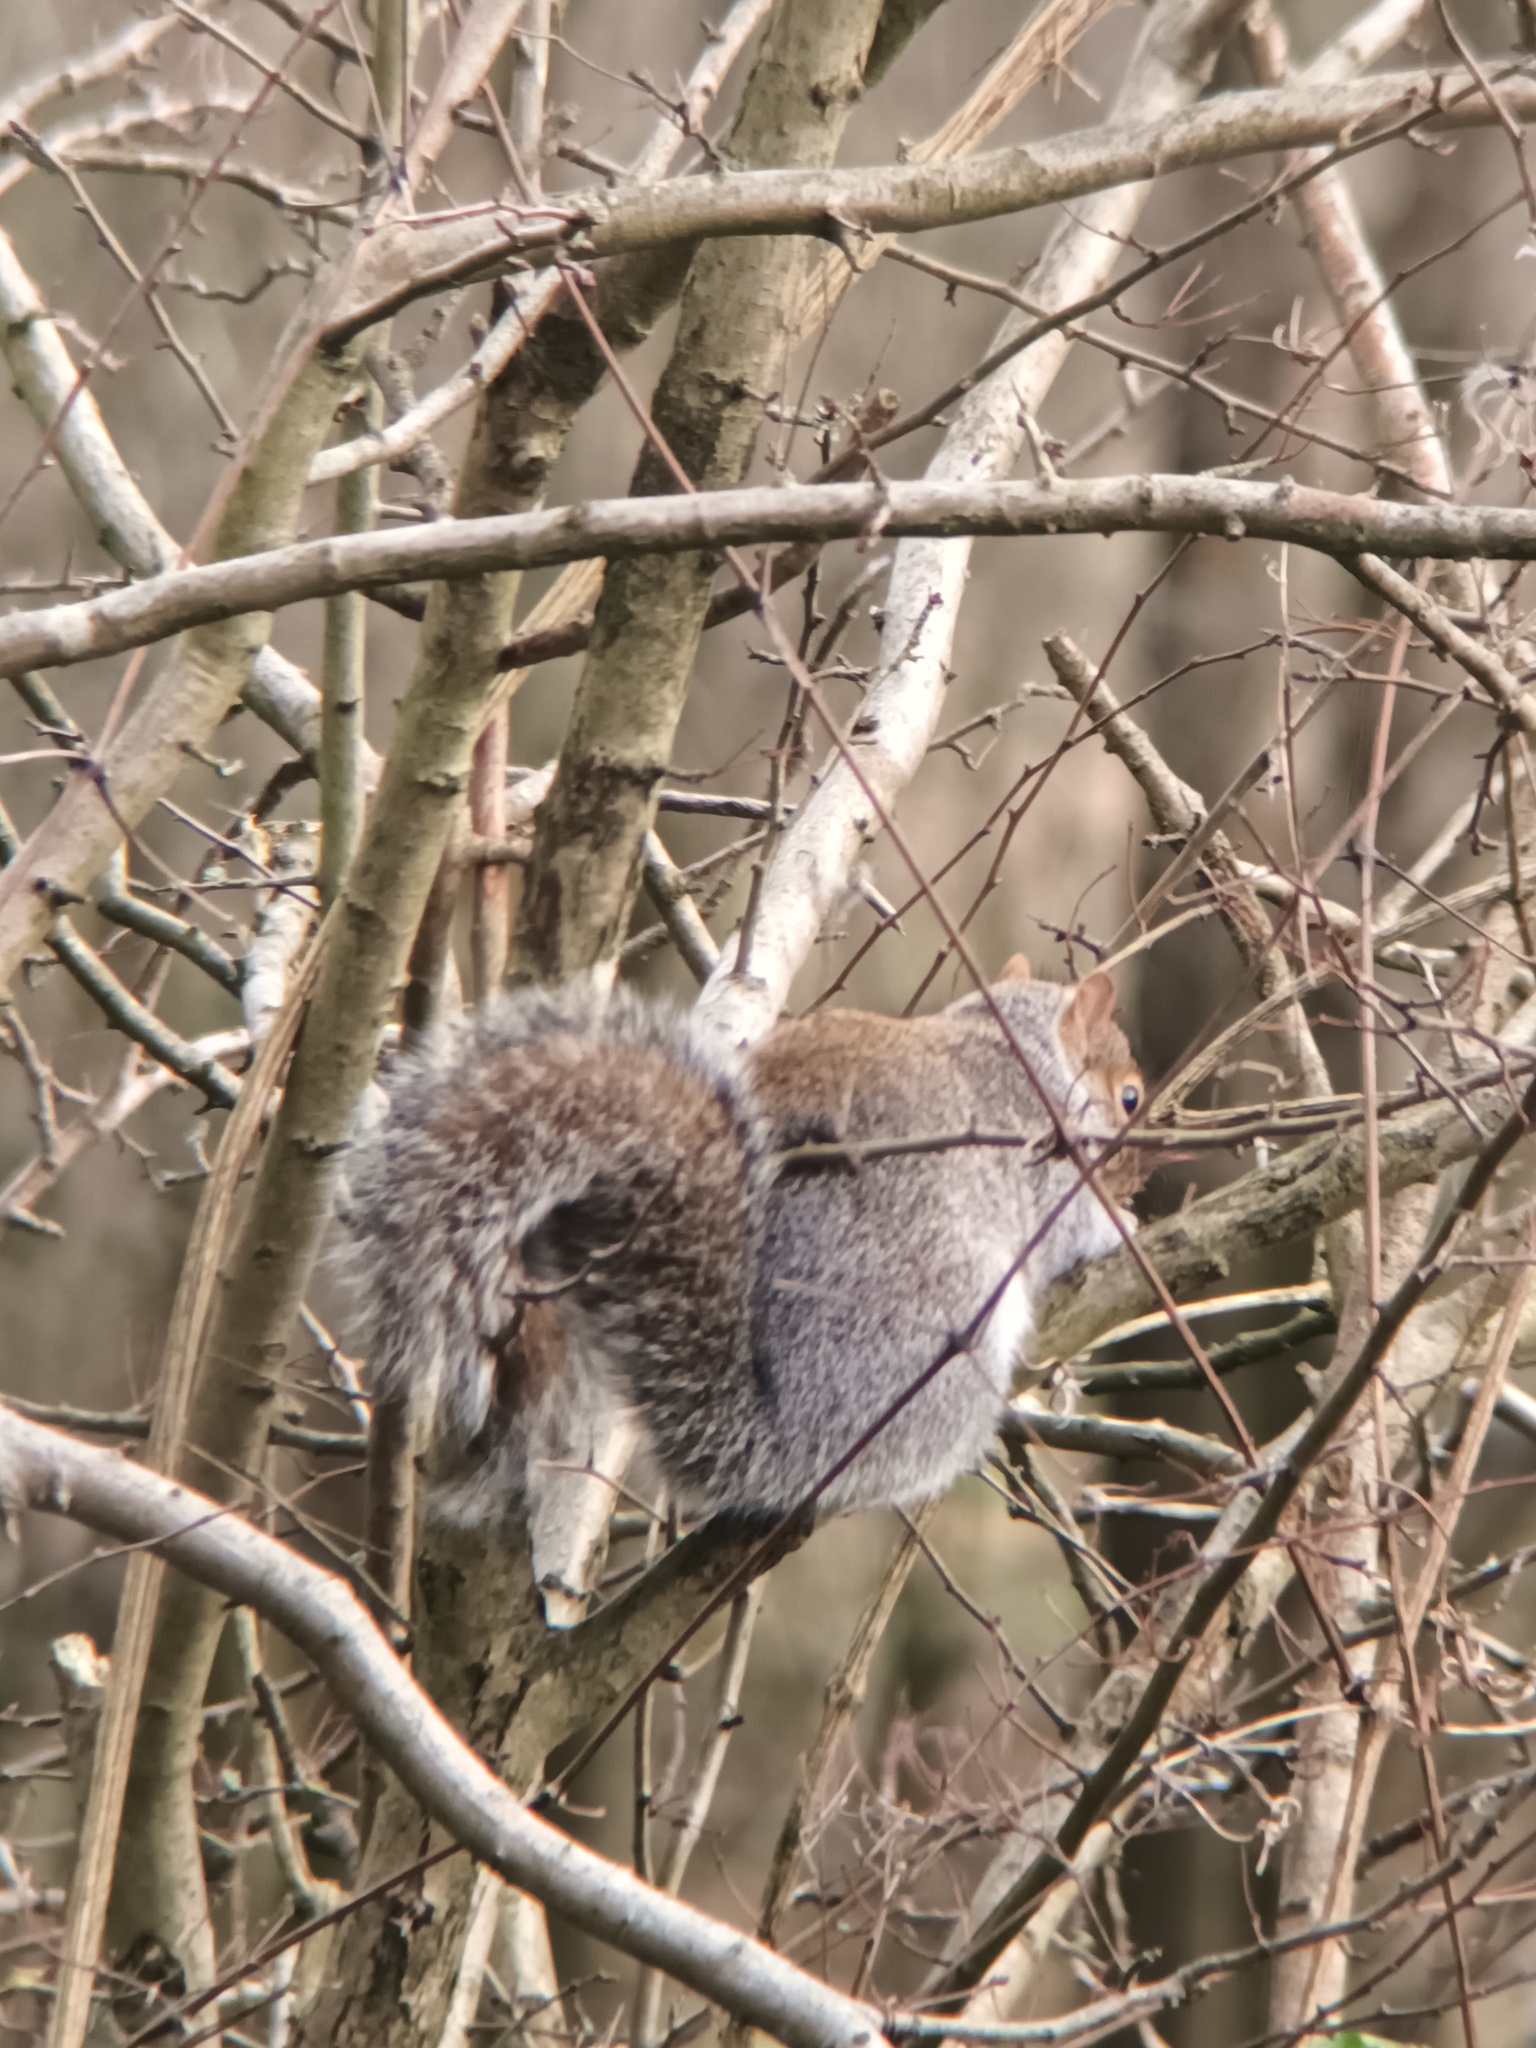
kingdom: Animalia
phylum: Chordata
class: Mammalia
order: Rodentia
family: Sciuridae
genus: Sciurus
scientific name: Sciurus carolinensis
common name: Eastern gray squirrel
